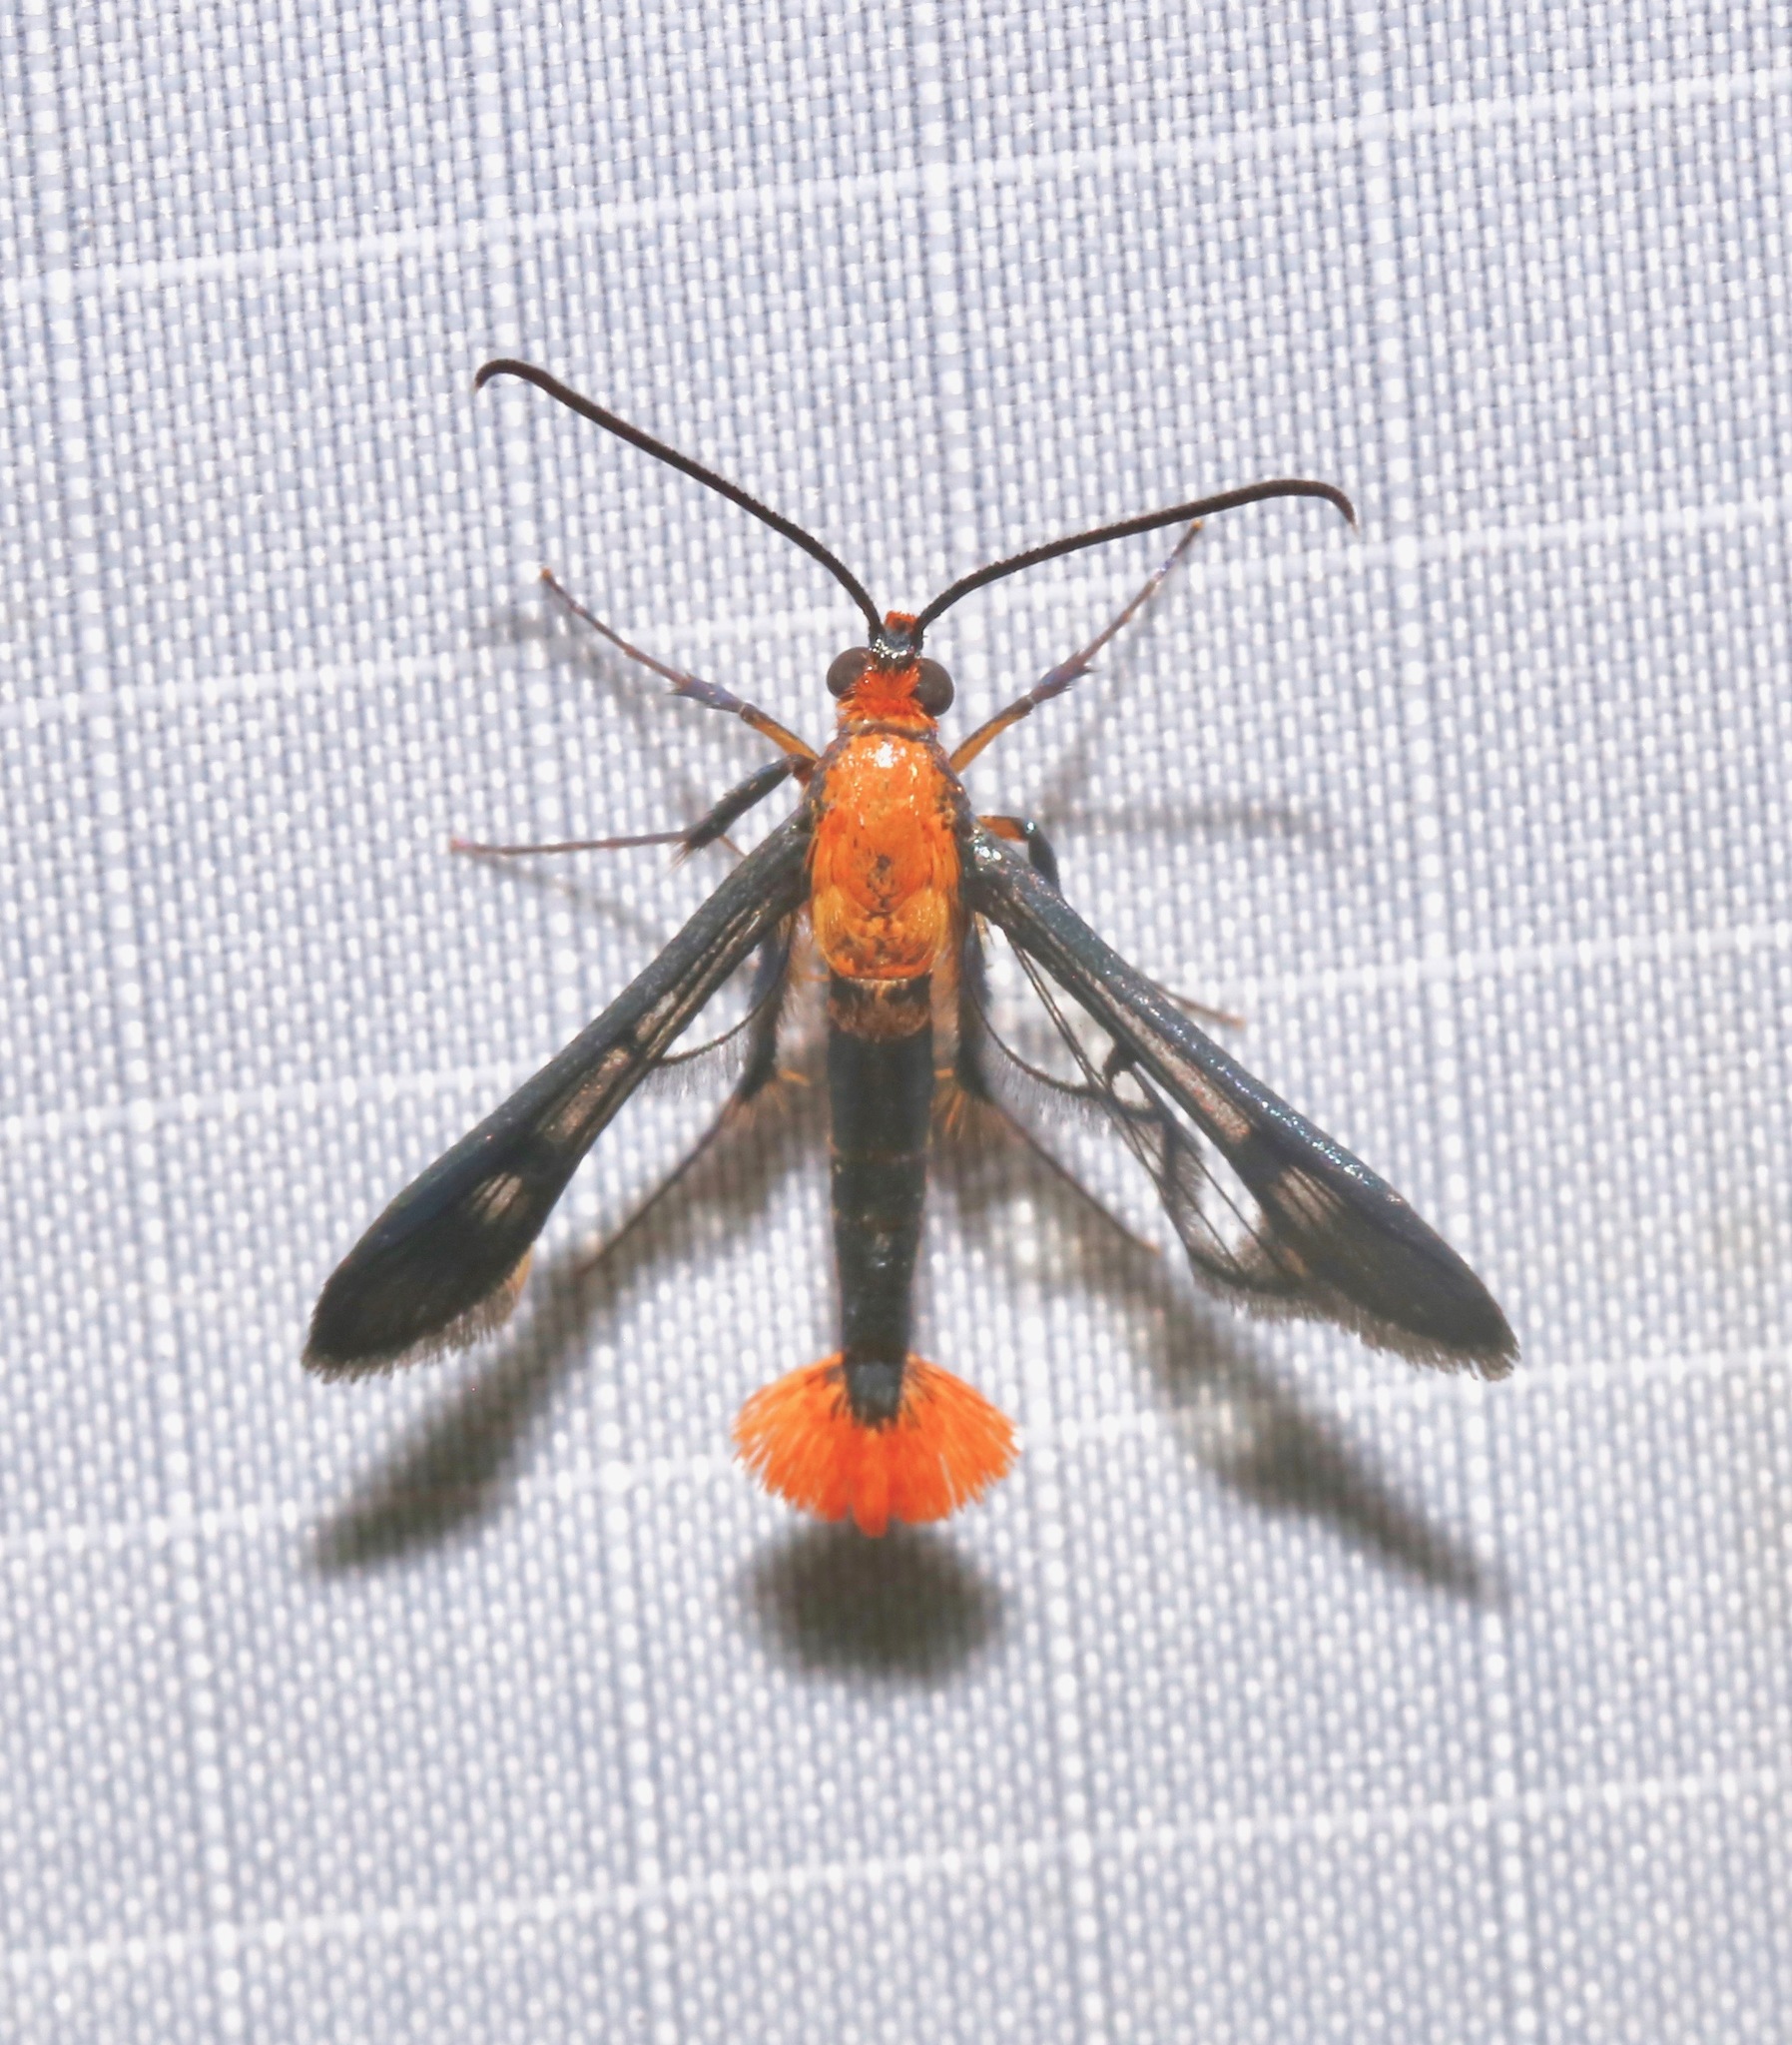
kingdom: Animalia
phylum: Arthropoda
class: Insecta
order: Lepidoptera
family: Sesiidae
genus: Synanthedon
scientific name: Synanthedon acerni
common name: Maple callus borer moth
